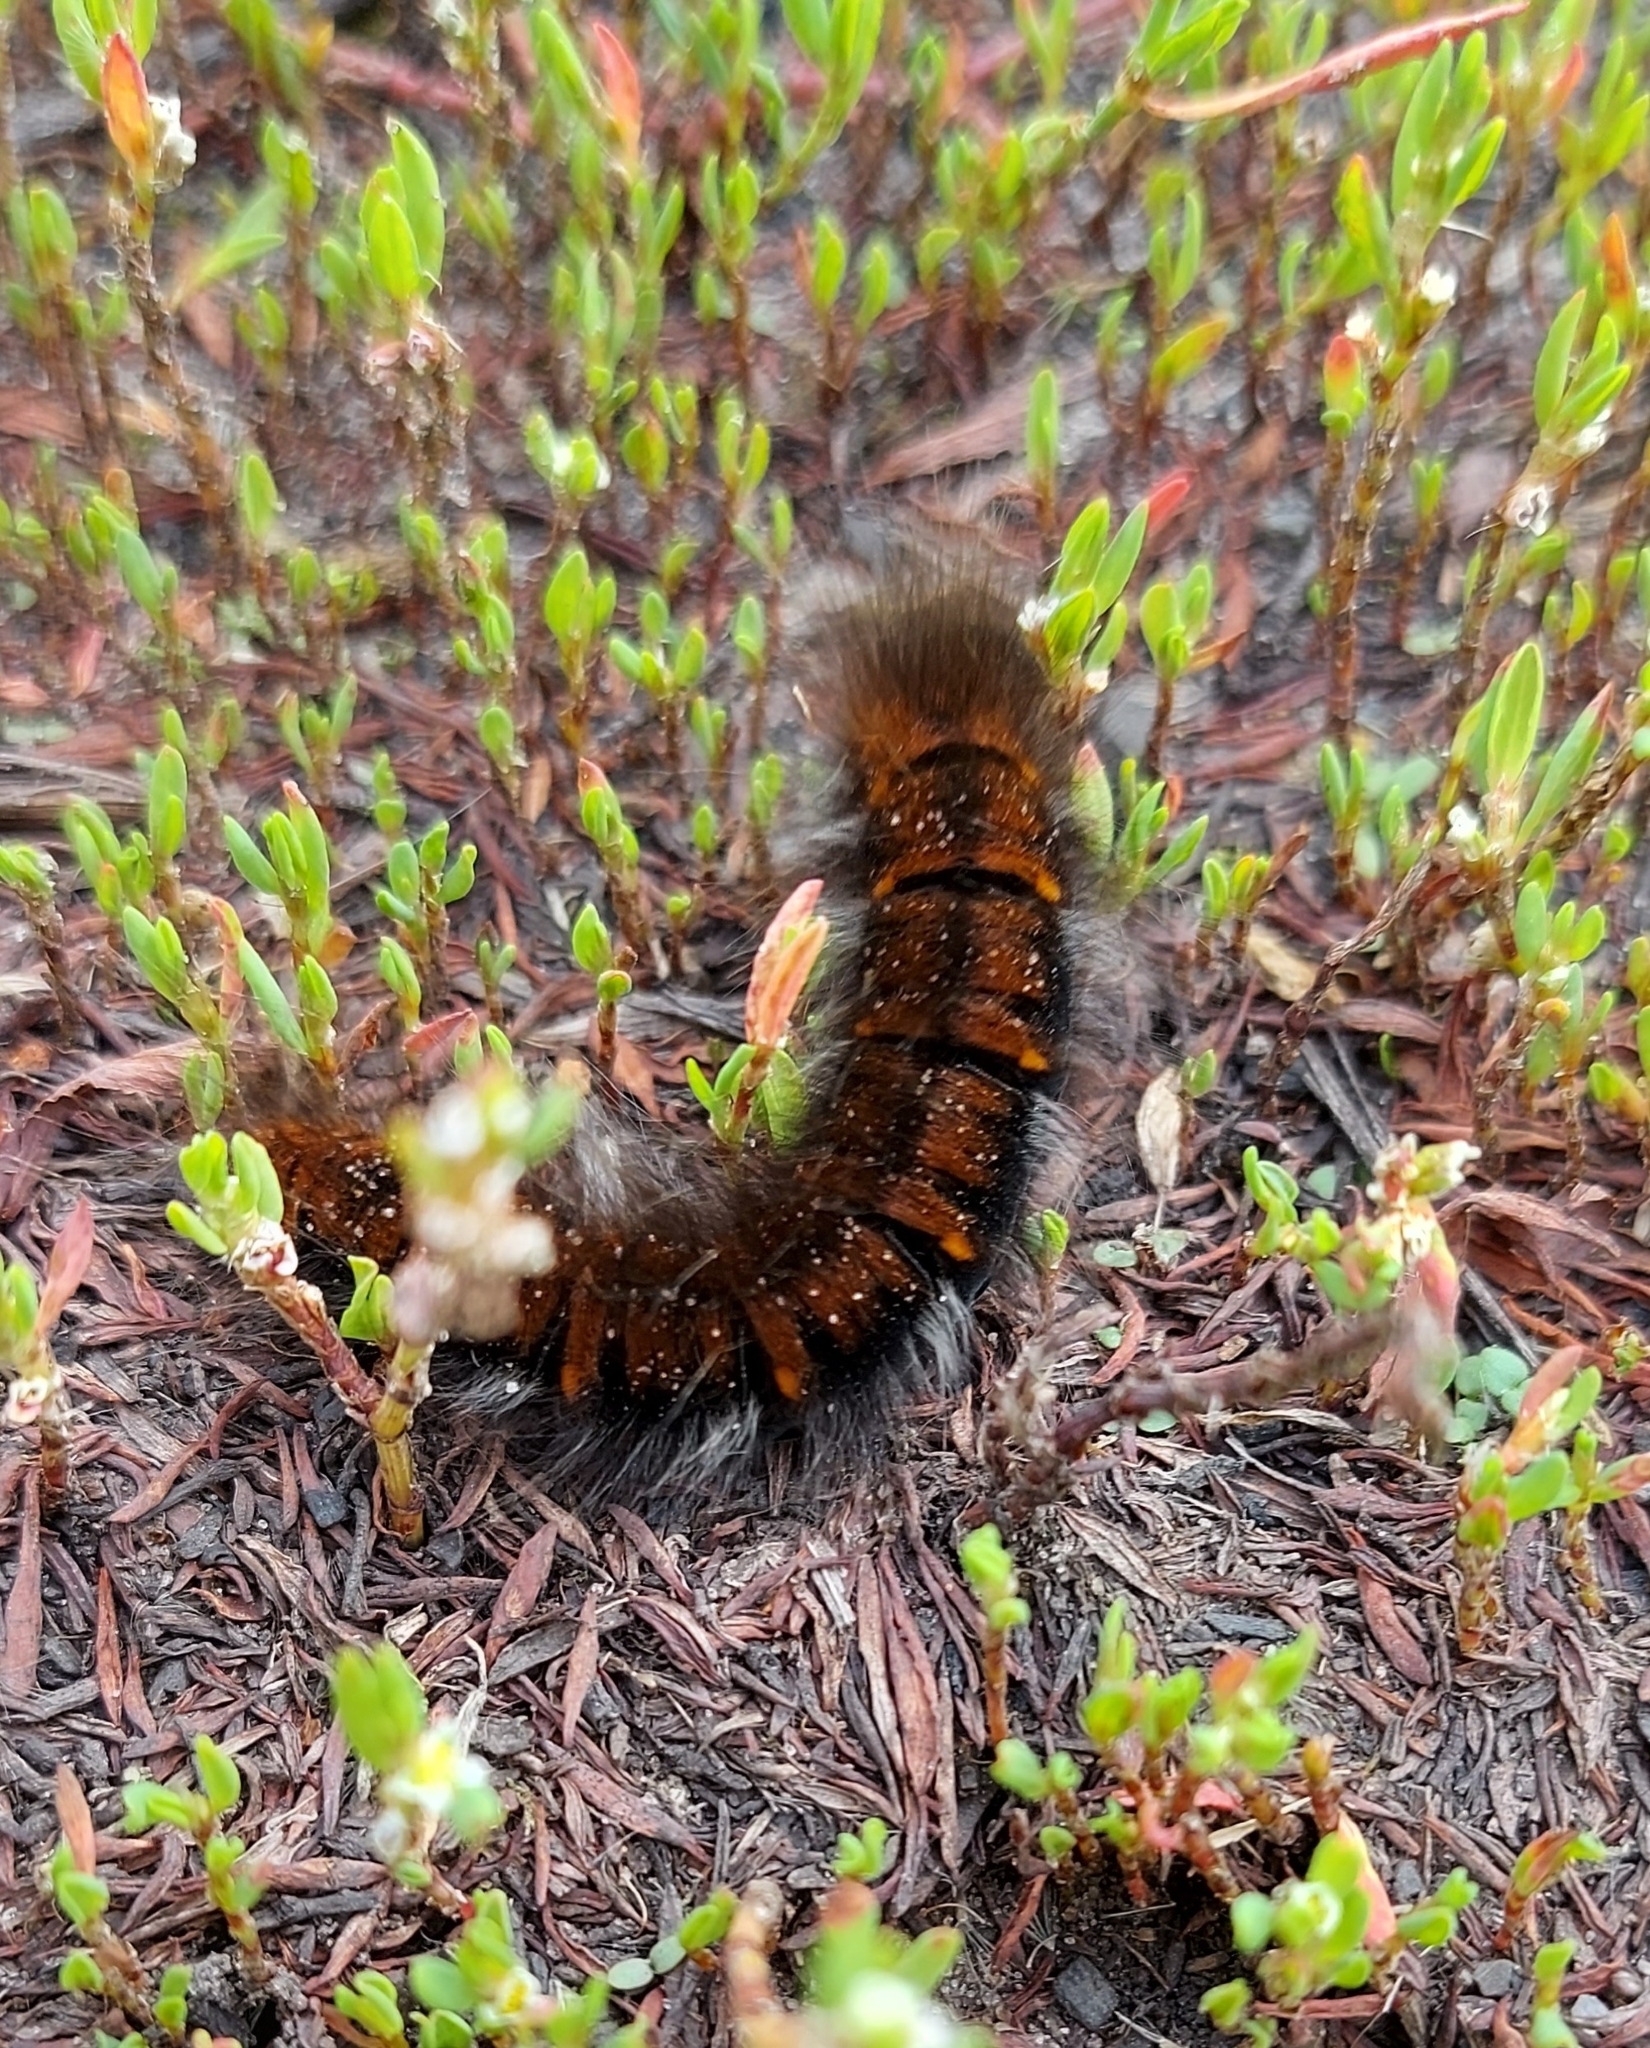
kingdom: Animalia
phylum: Arthropoda
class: Insecta
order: Lepidoptera
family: Lasiocampidae
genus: Macrothylacia
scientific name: Macrothylacia rubi
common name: Fox moth
